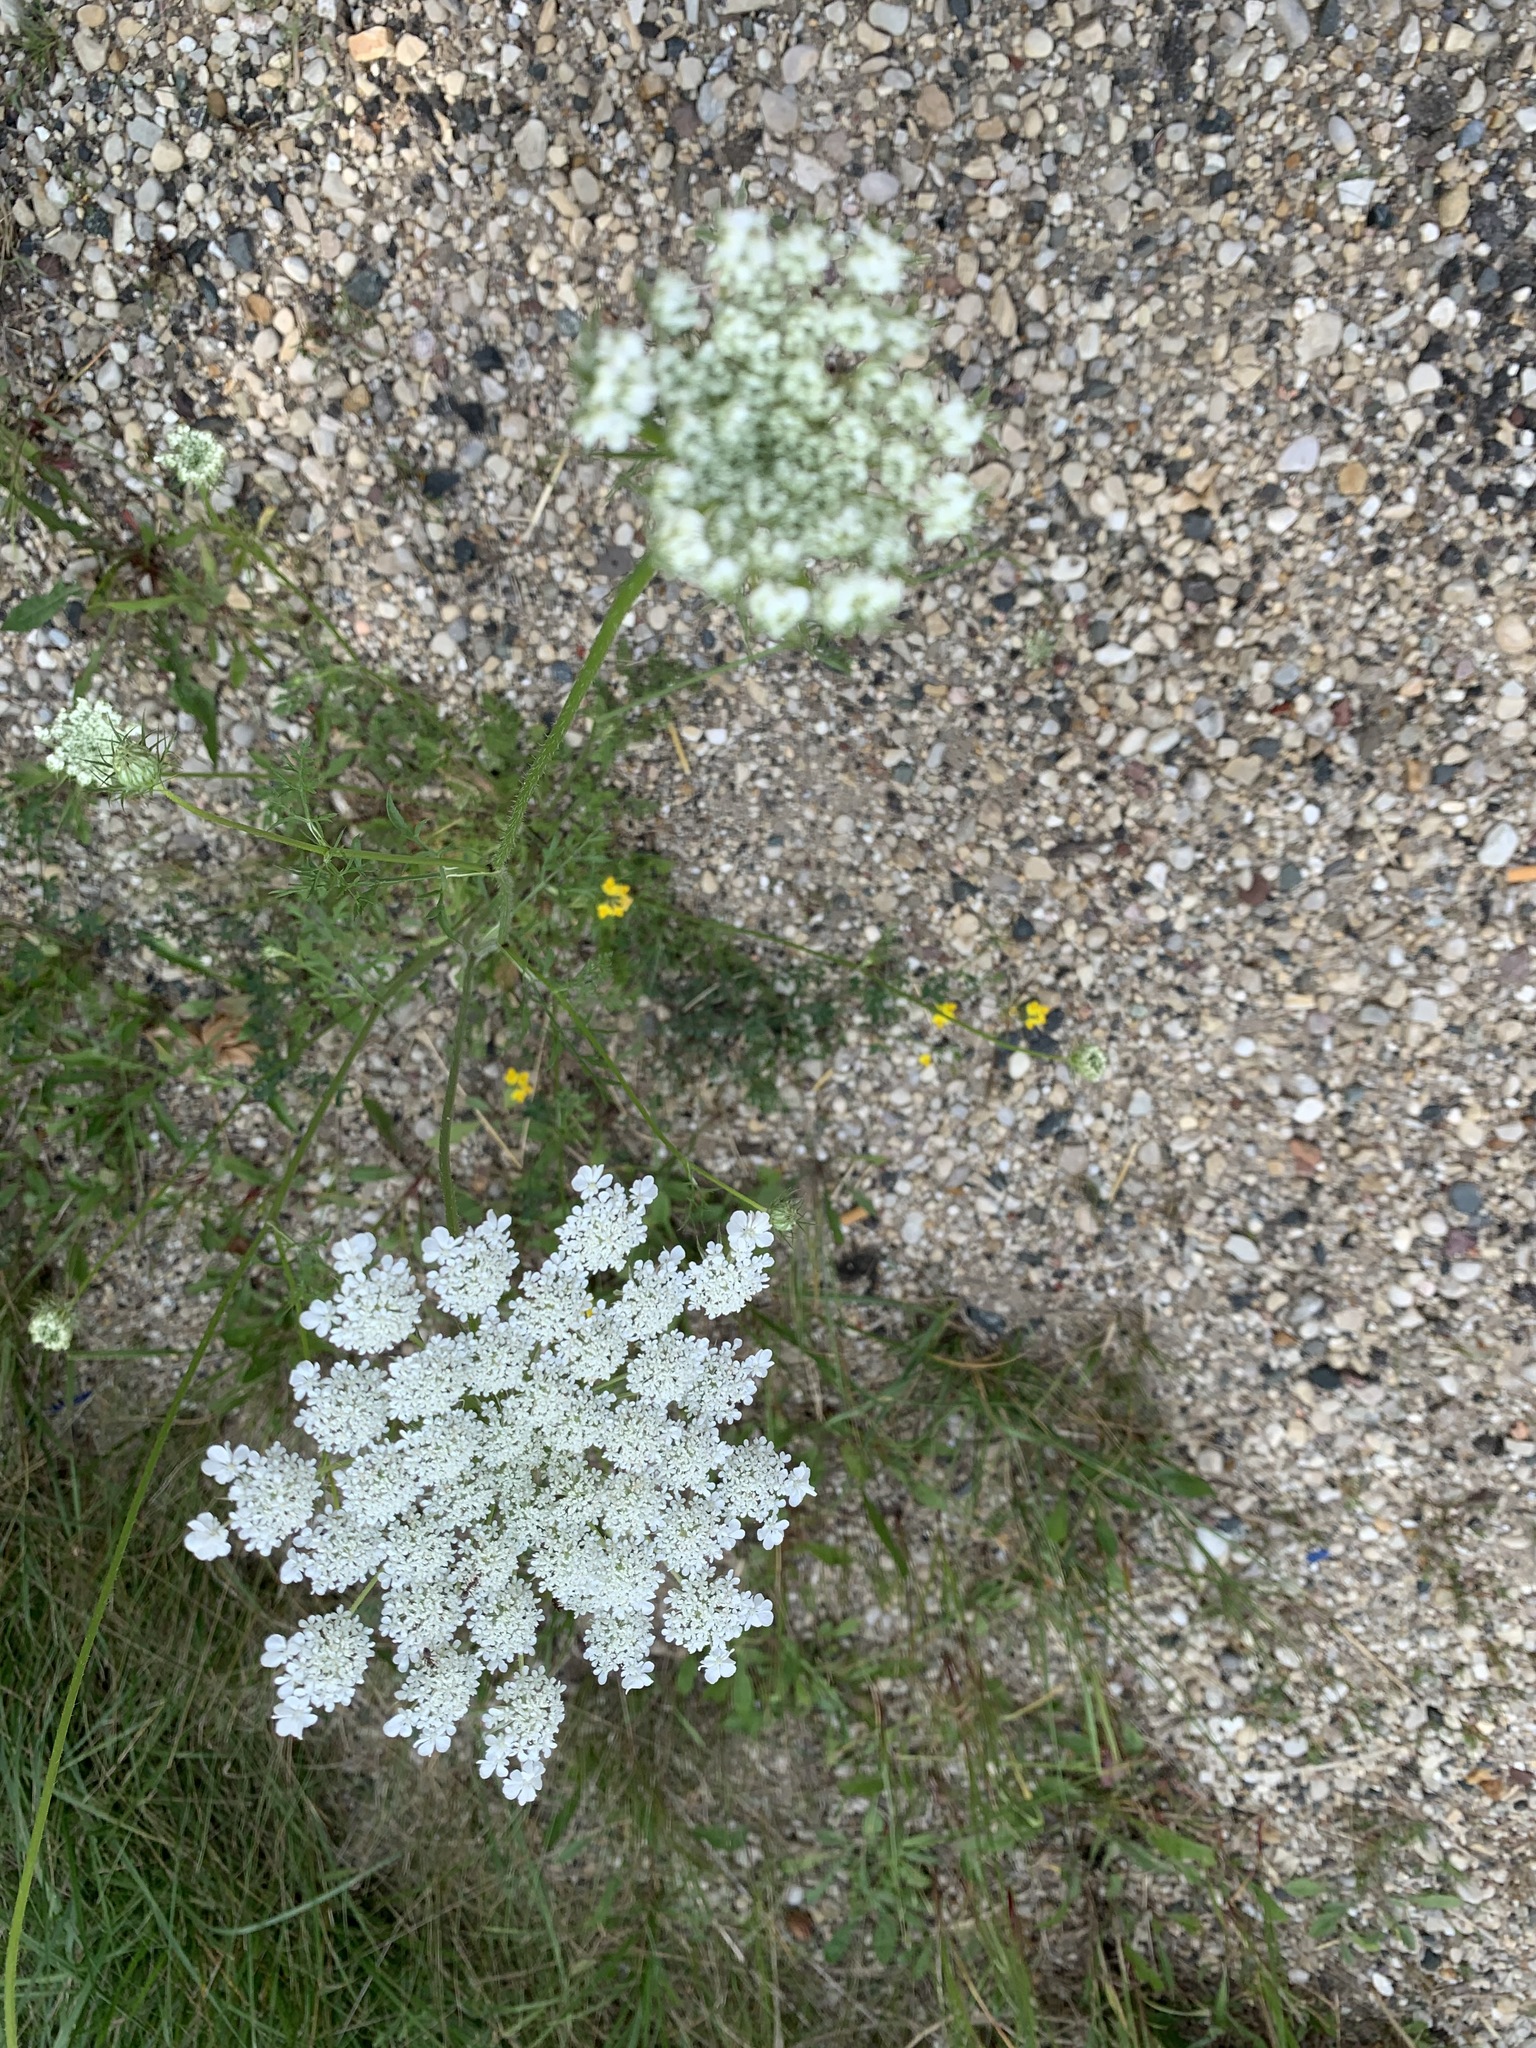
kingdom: Plantae
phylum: Tracheophyta
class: Magnoliopsida
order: Apiales
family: Apiaceae
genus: Daucus
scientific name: Daucus carota
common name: Wild carrot
